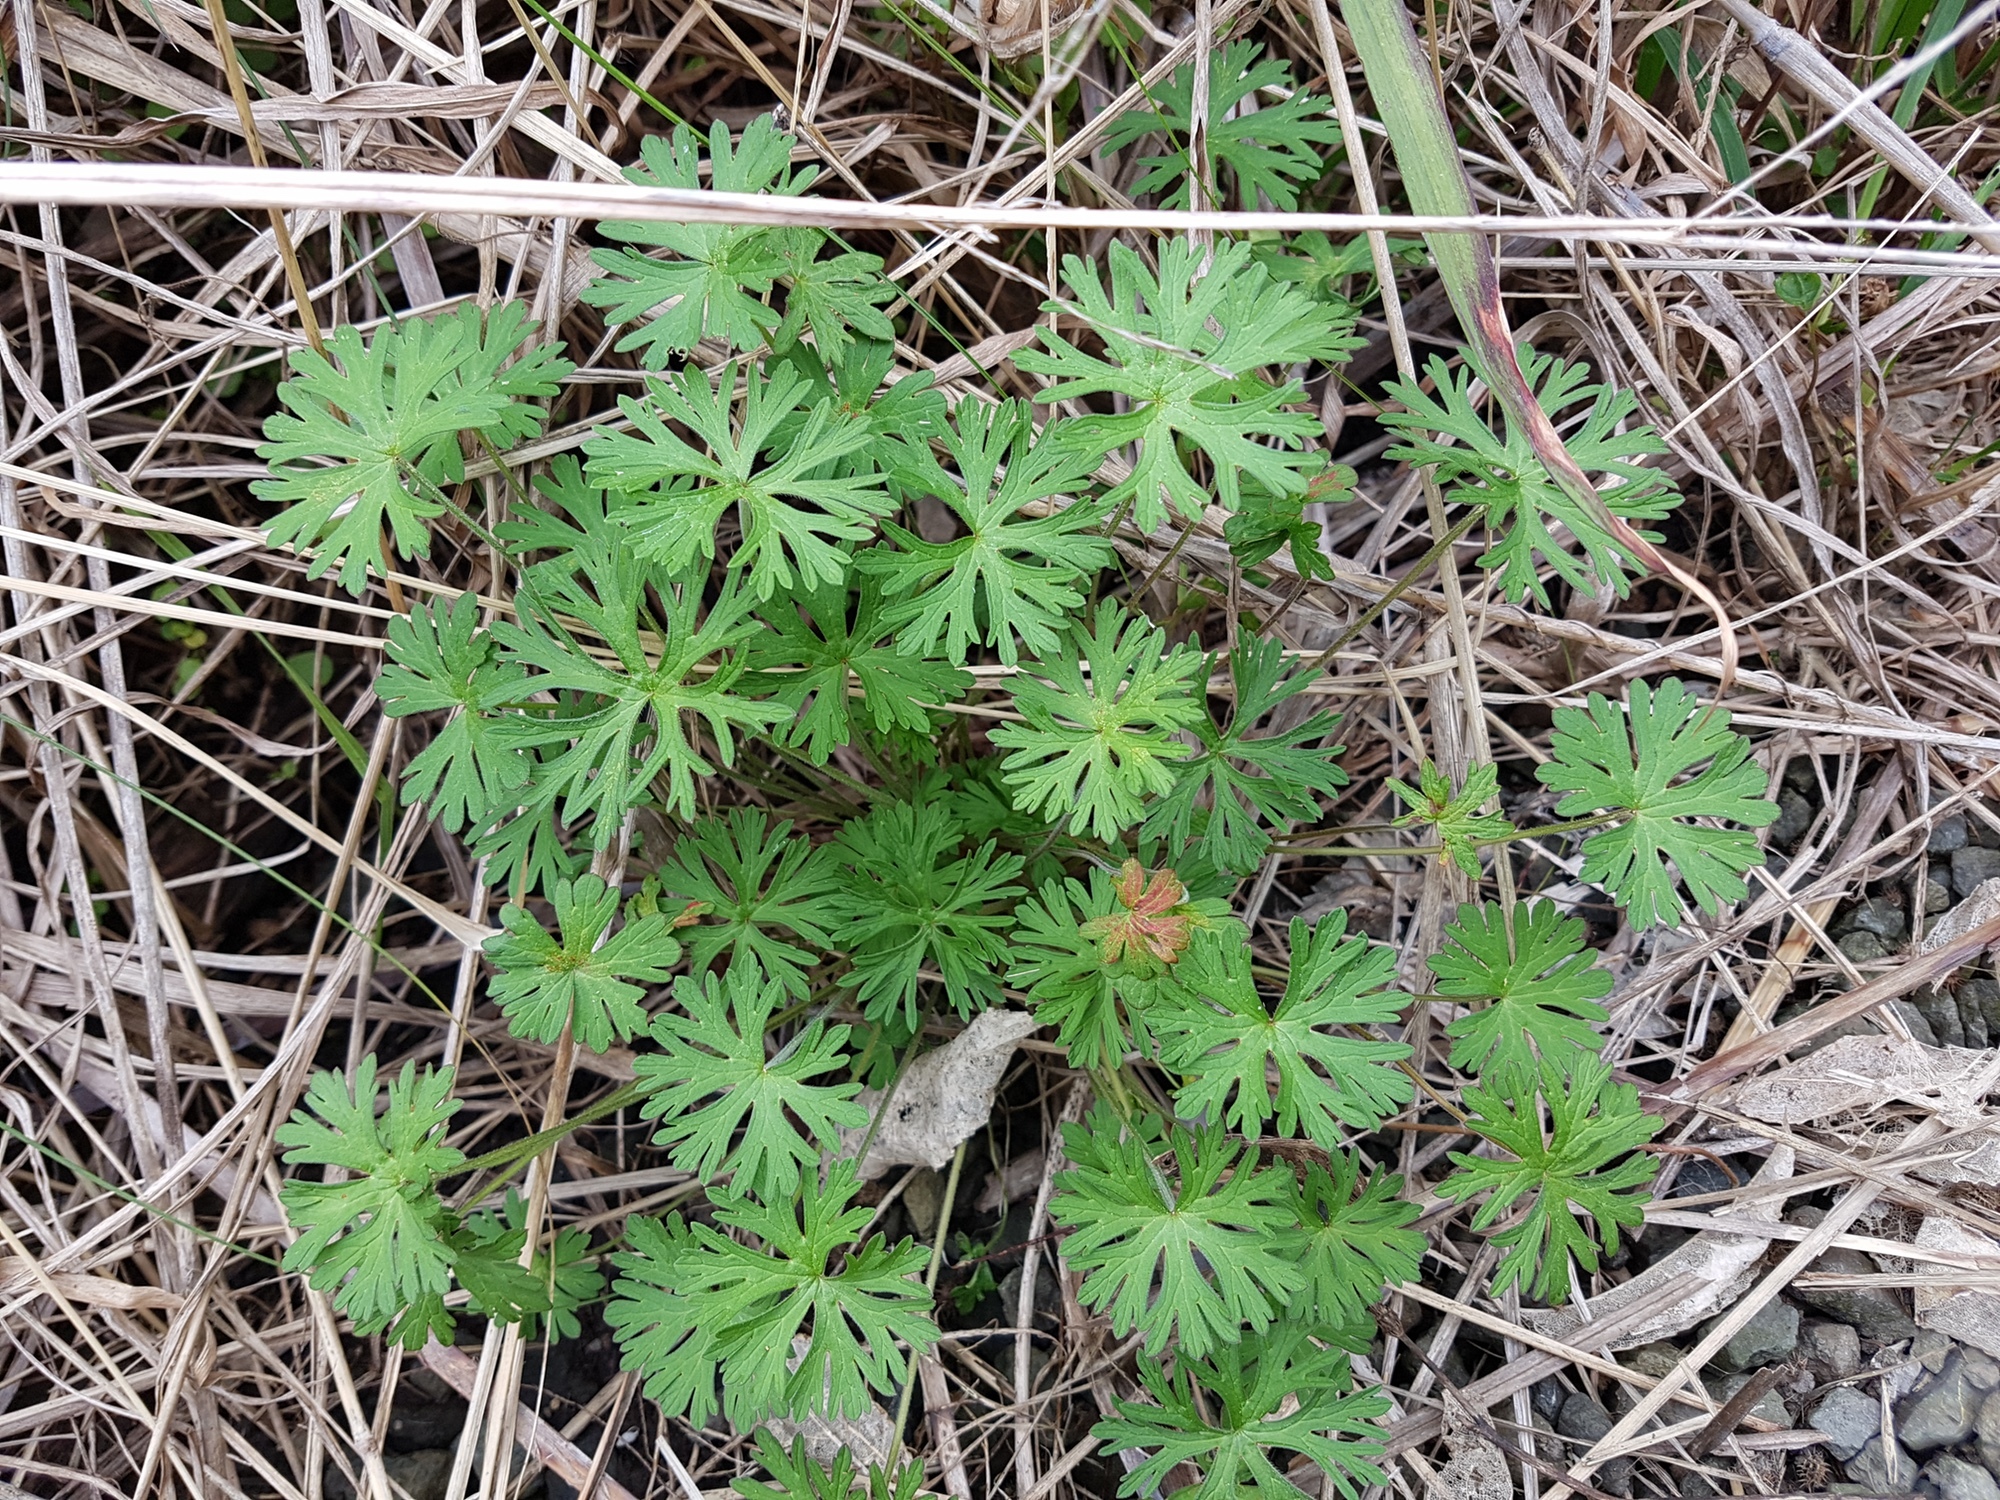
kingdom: Plantae
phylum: Tracheophyta
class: Magnoliopsida
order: Geraniales
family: Geraniaceae
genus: Geranium
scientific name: Geranium dissectum
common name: Cut-leaved crane's-bill
